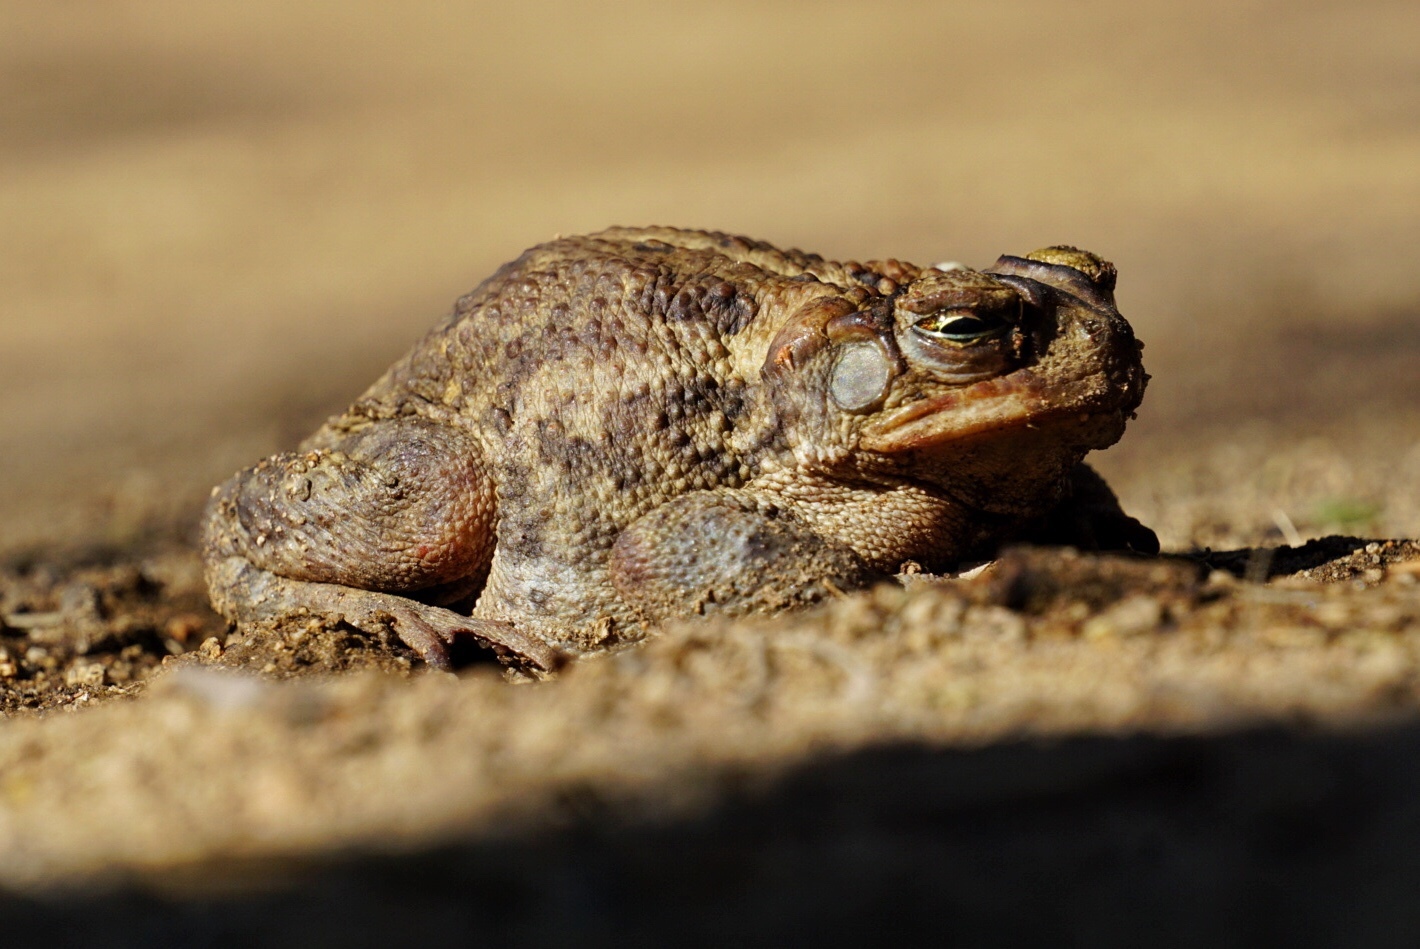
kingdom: Animalia
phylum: Chordata
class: Amphibia
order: Anura
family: Bufonidae
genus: Incilius
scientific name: Incilius mazatlanensis
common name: Sinaloa toad
